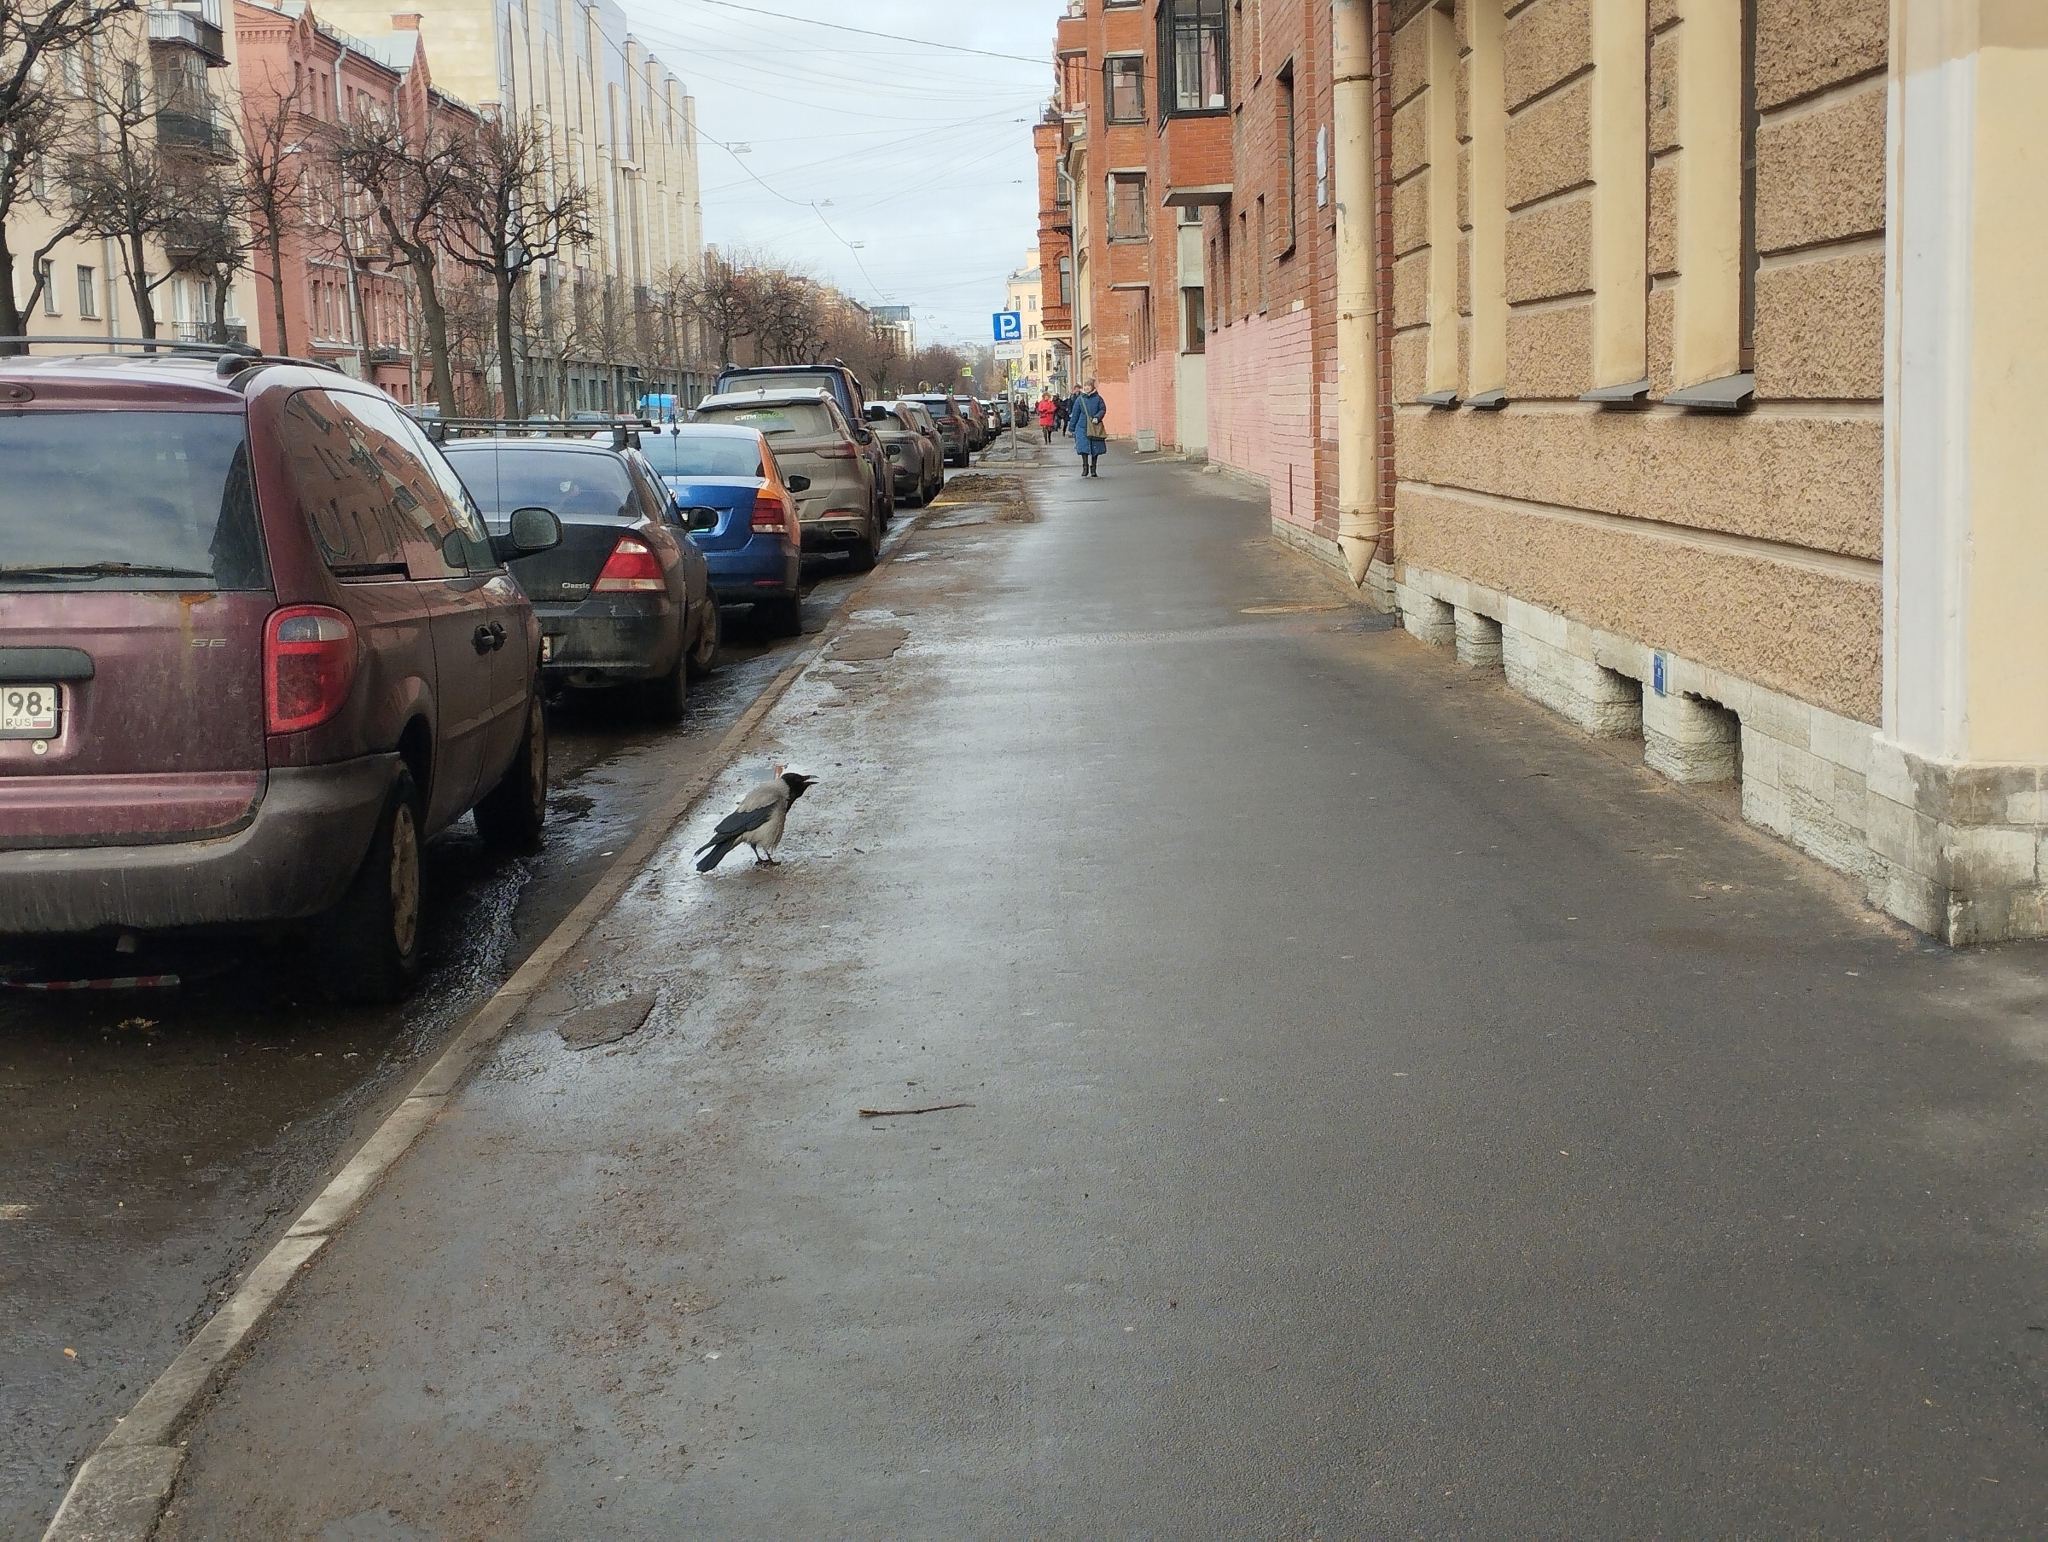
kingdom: Animalia
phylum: Chordata
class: Aves
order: Passeriformes
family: Corvidae
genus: Corvus
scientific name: Corvus cornix
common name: Hooded crow
